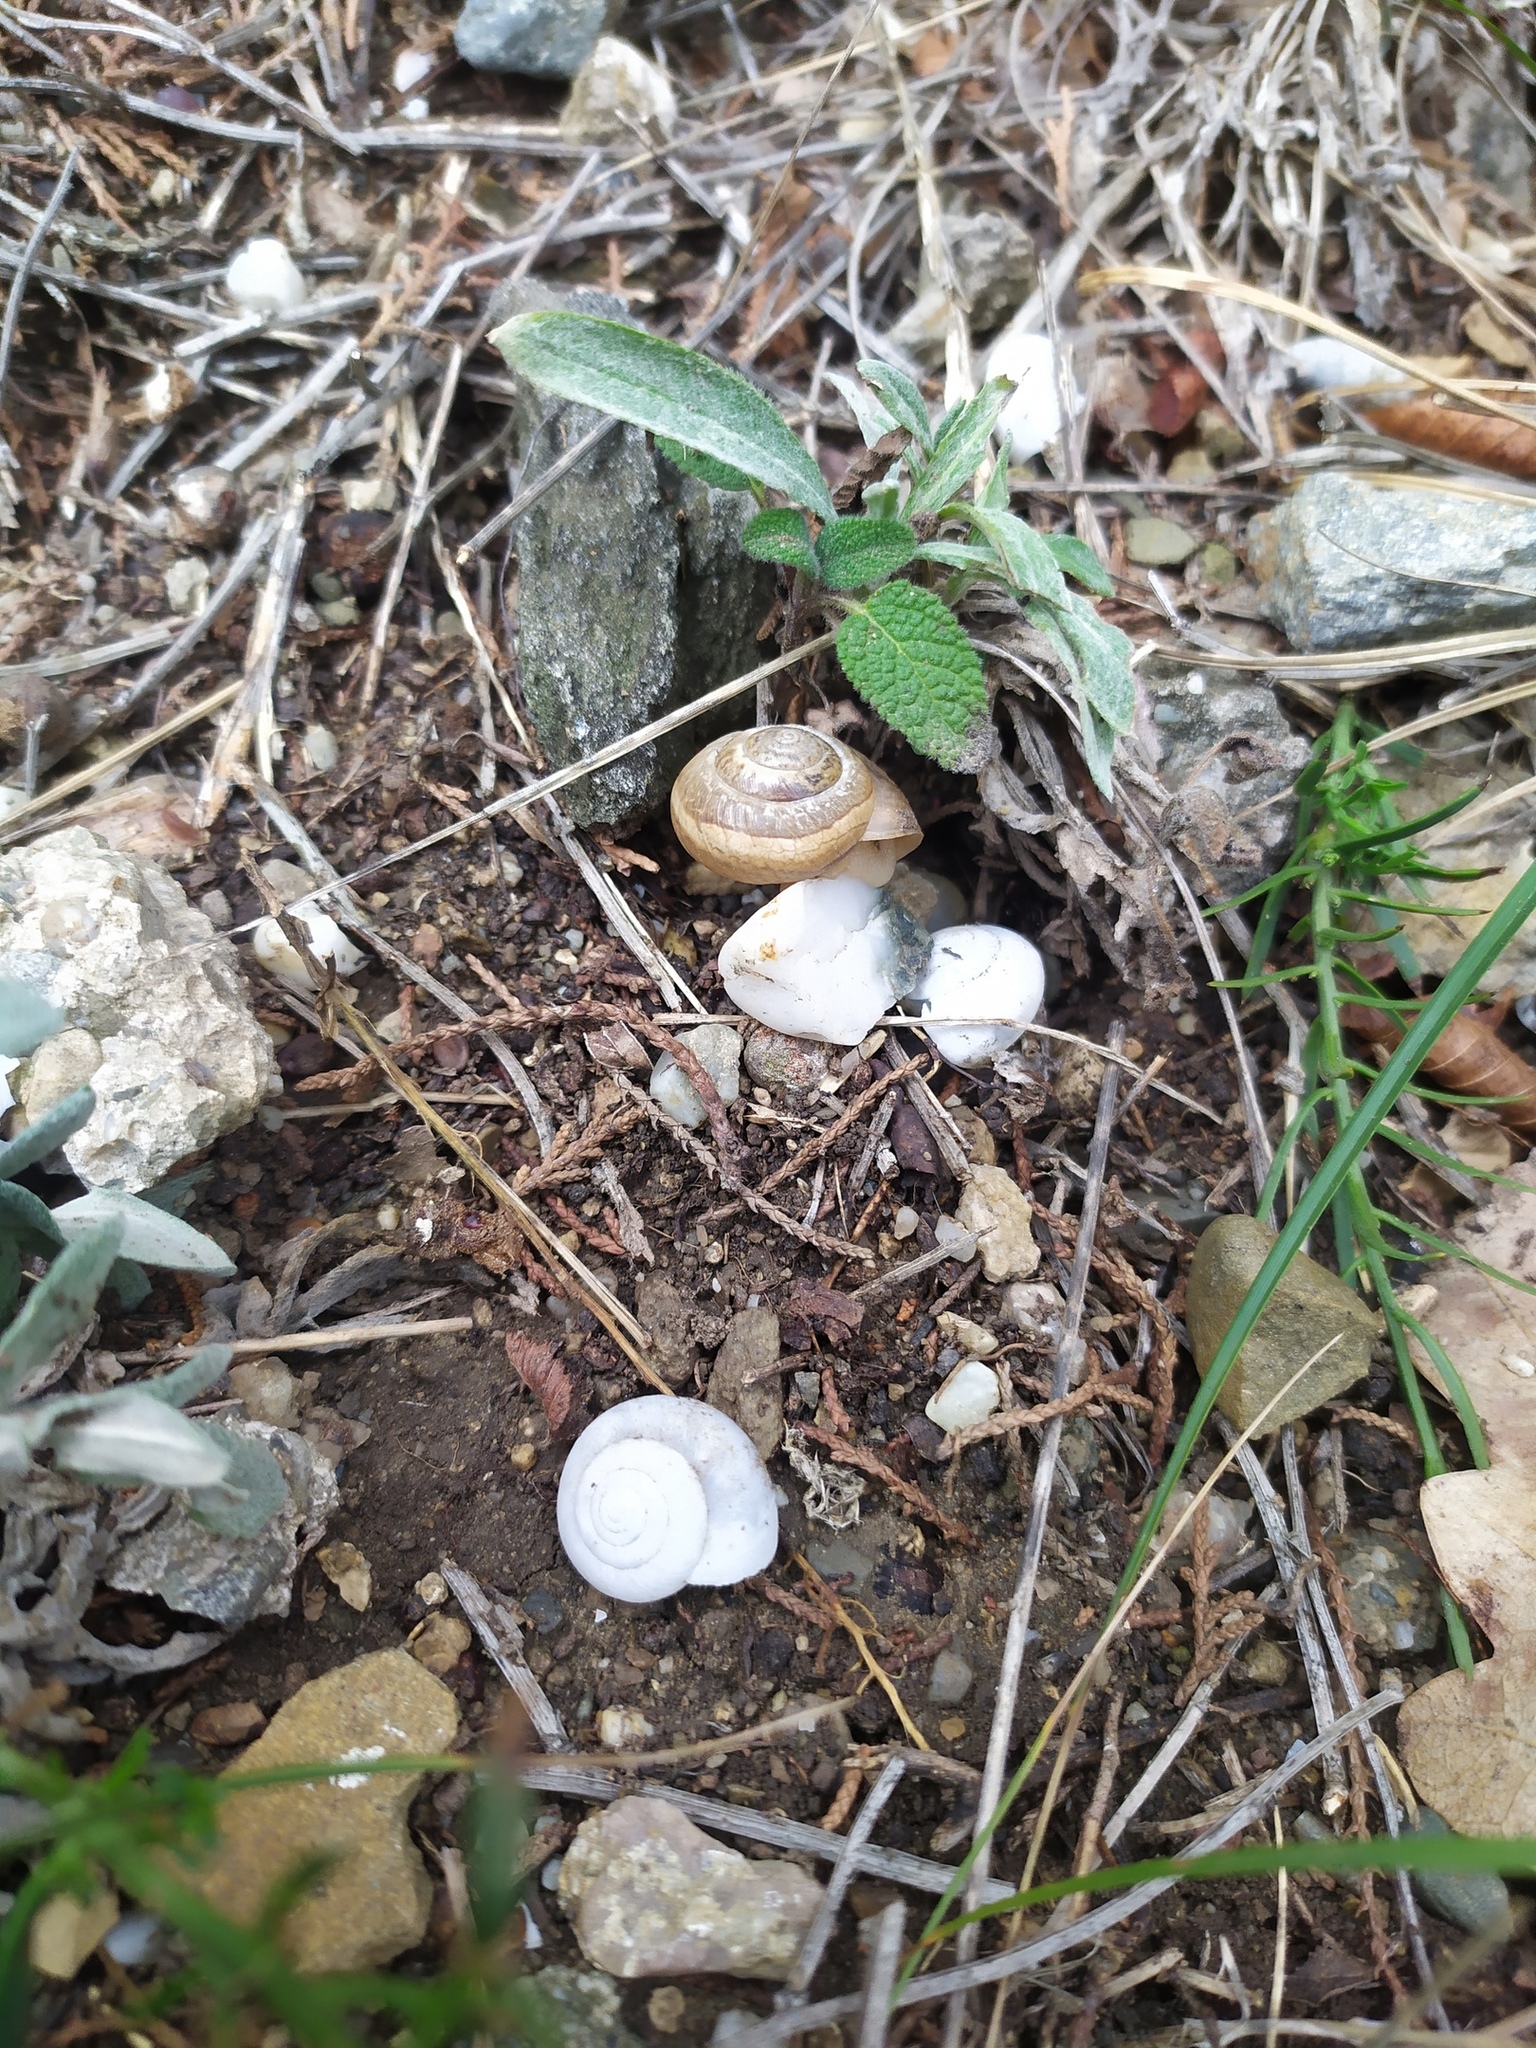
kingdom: Animalia
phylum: Mollusca
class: Gastropoda
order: Stylommatophora
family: Hygromiidae
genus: Monacha
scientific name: Monacha fruticola
